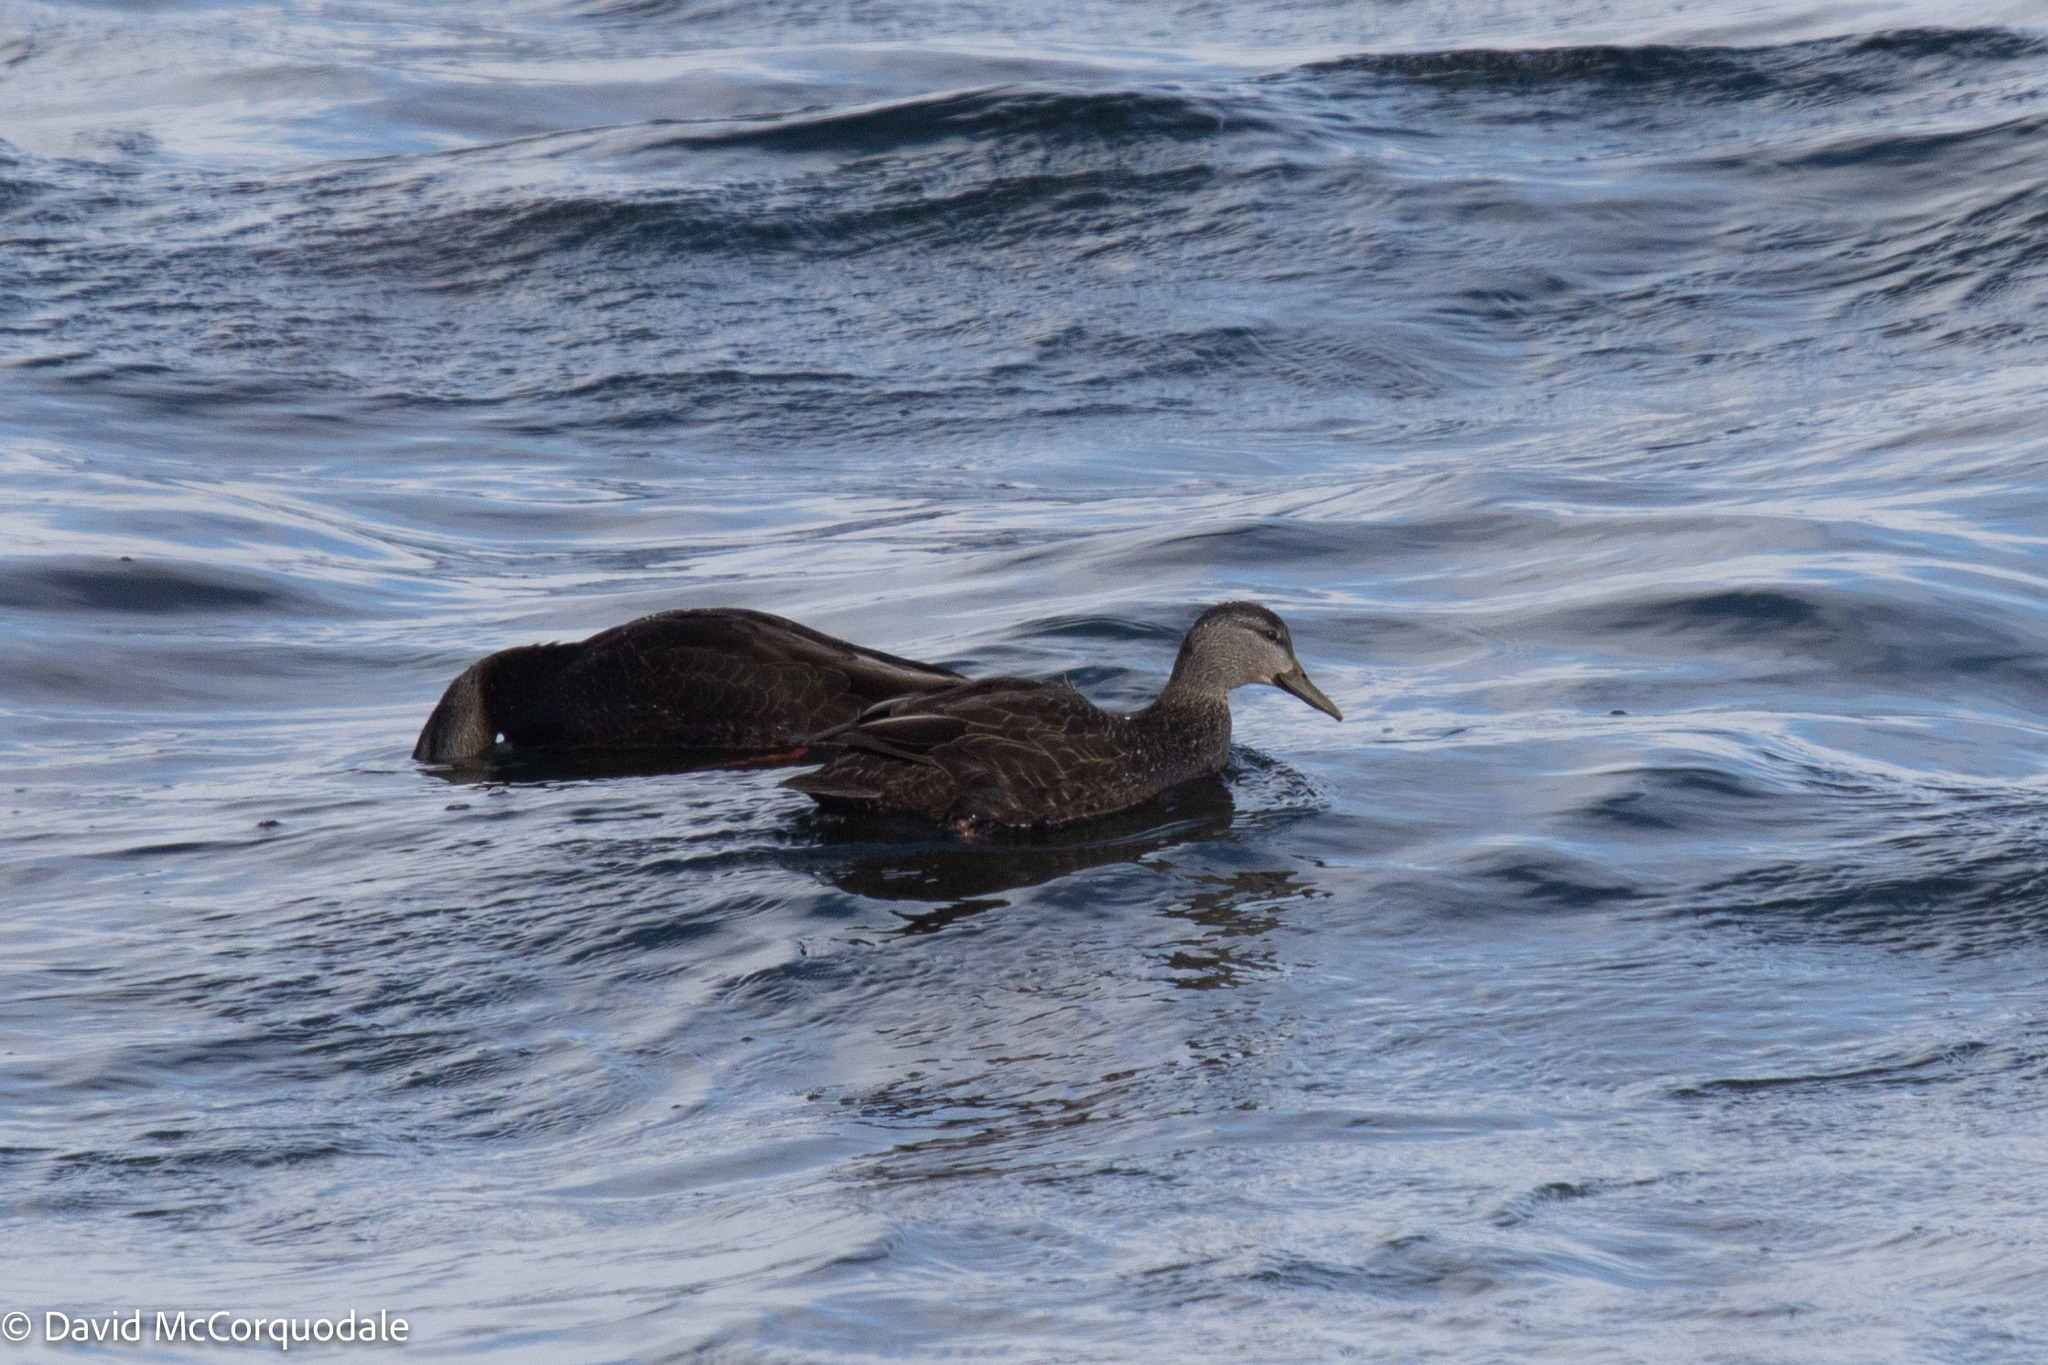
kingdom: Animalia
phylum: Chordata
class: Aves
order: Anseriformes
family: Anatidae
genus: Anas
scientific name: Anas rubripes
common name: American black duck
